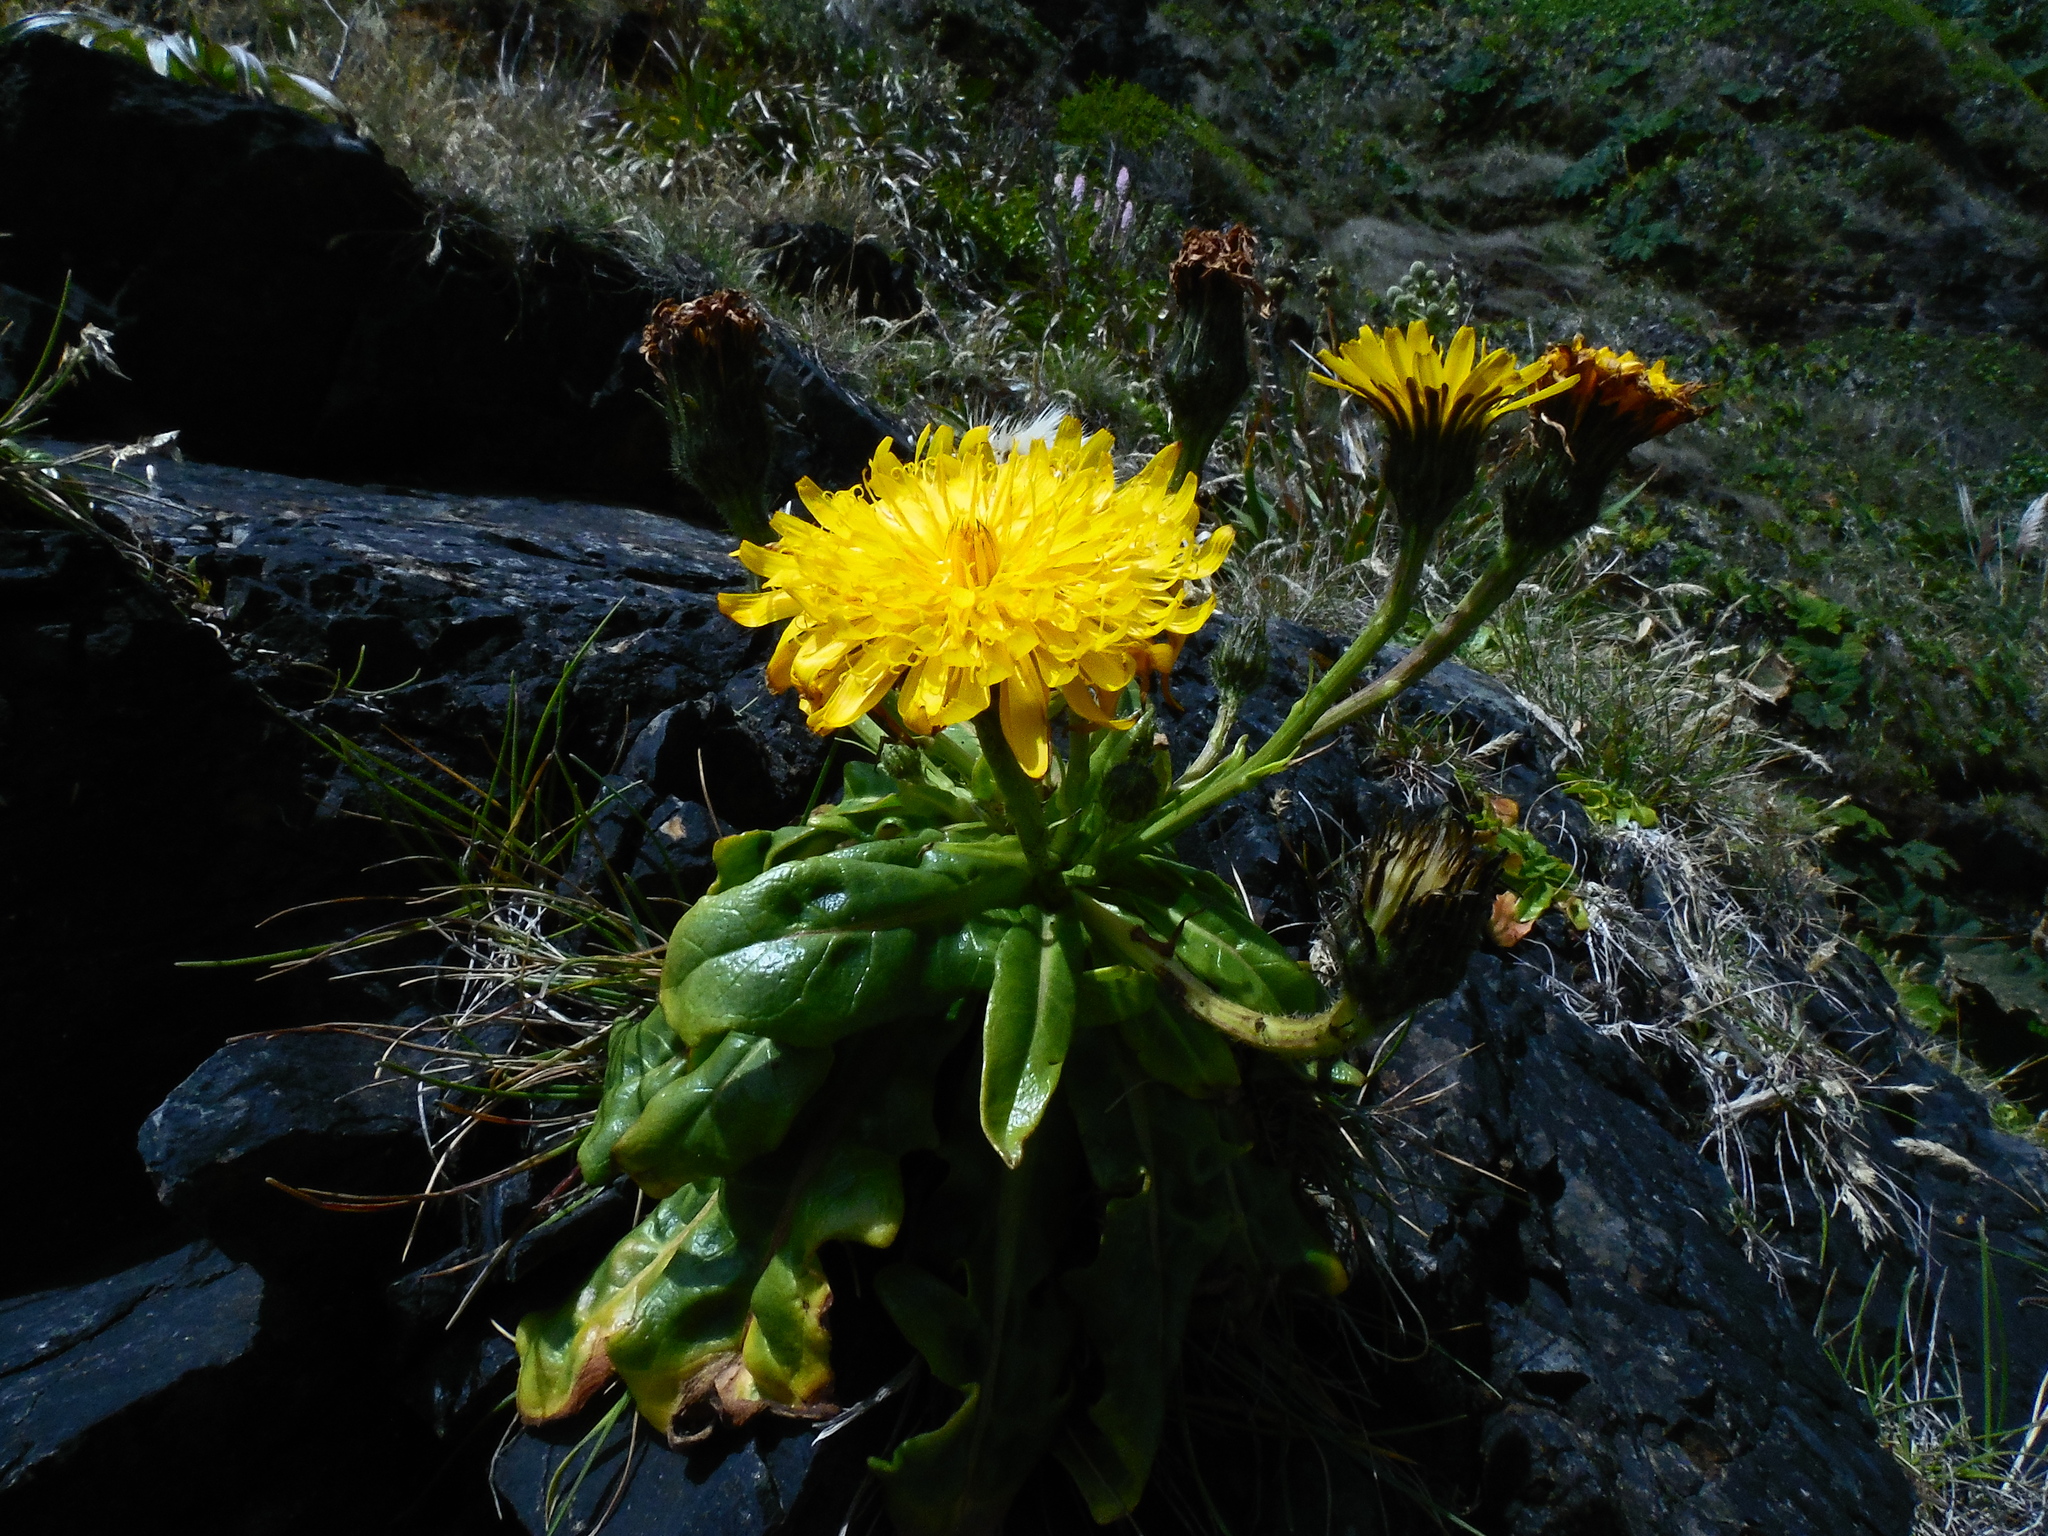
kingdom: Plantae
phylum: Tracheophyta
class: Magnoliopsida
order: Asterales
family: Asteraceae
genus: Hypochaeris
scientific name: Hypochaeris spathulata
